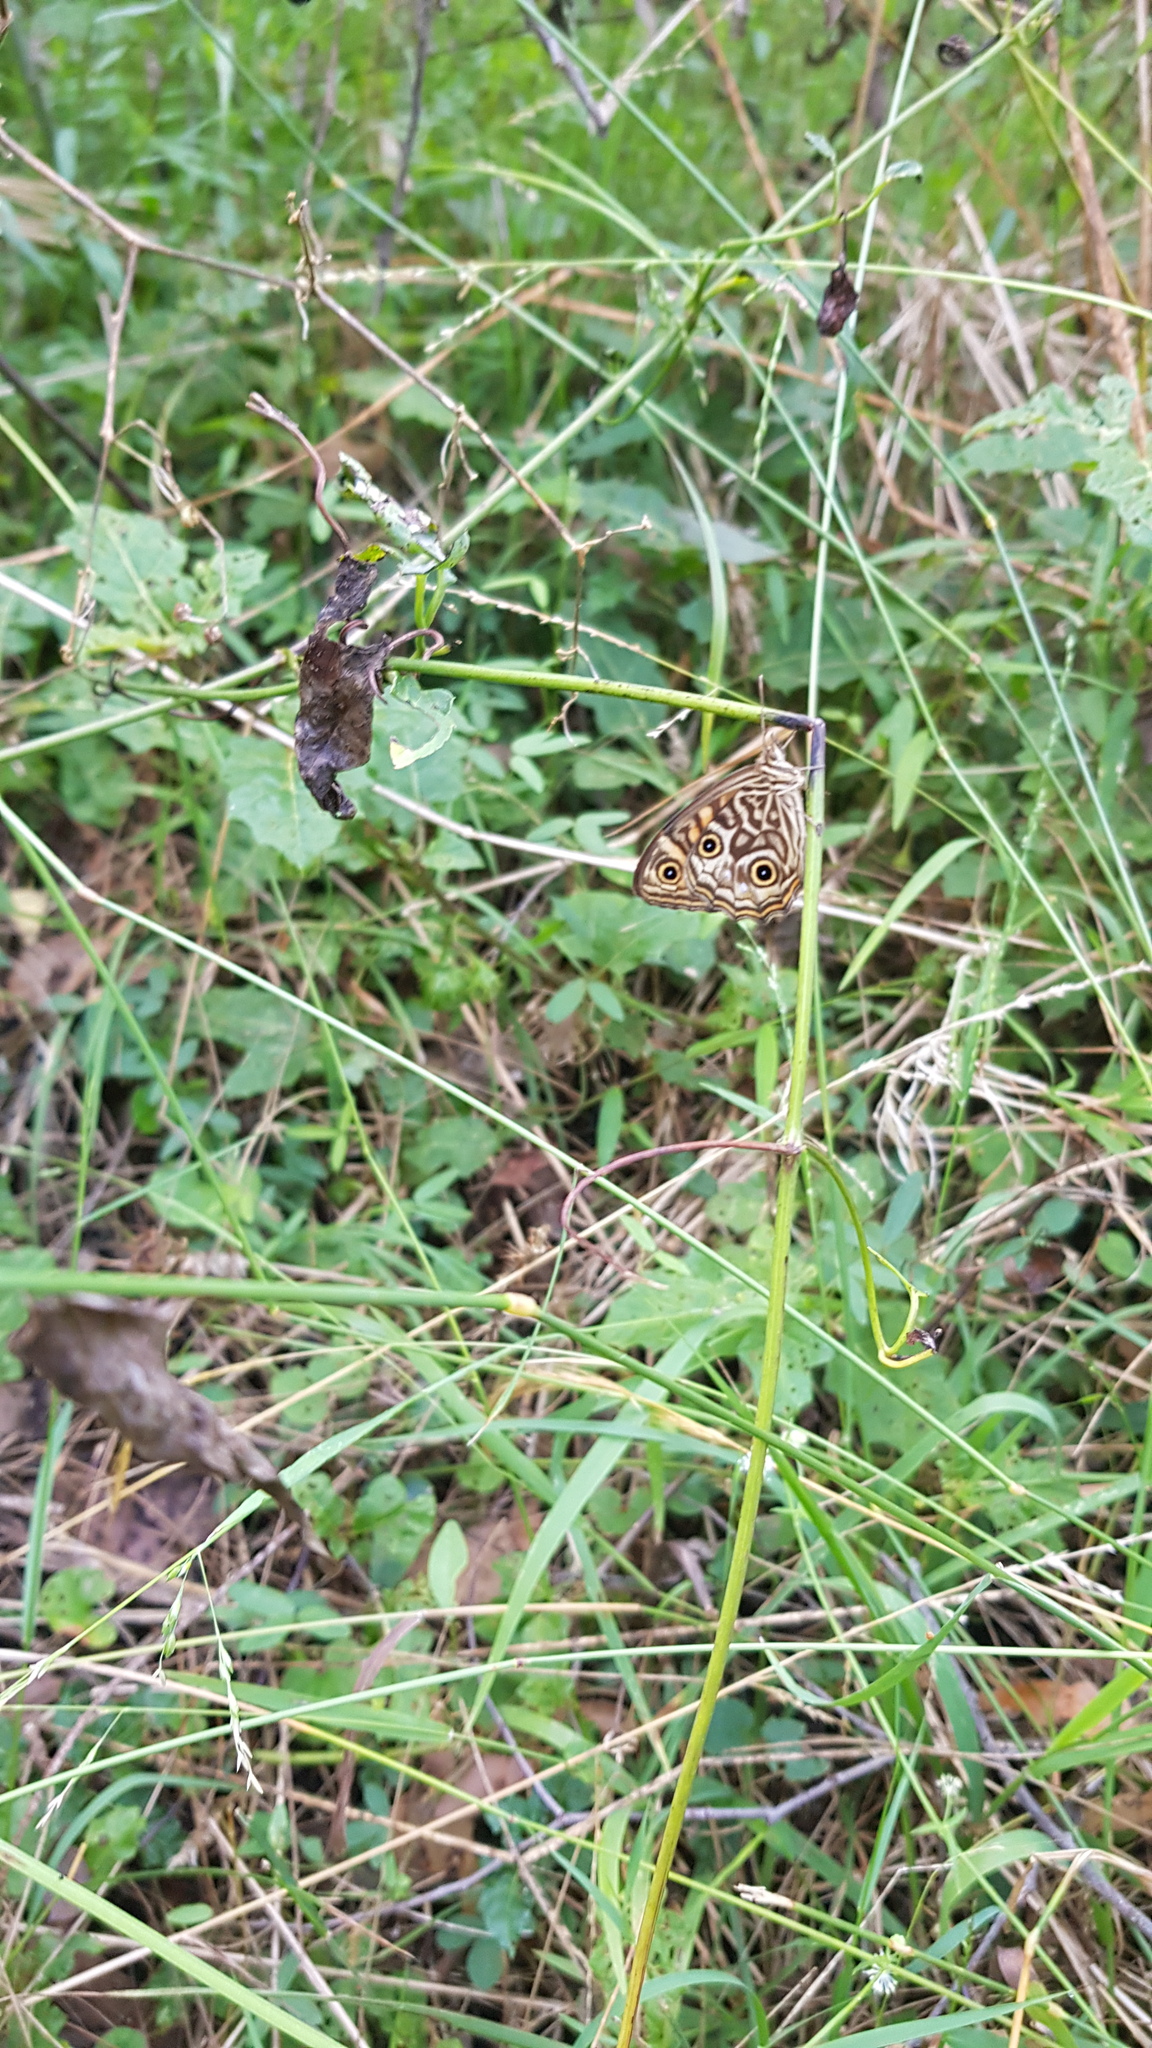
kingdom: Animalia
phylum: Arthropoda
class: Insecta
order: Lepidoptera
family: Nymphalidae
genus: Geitoneura
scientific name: Geitoneura acantha
